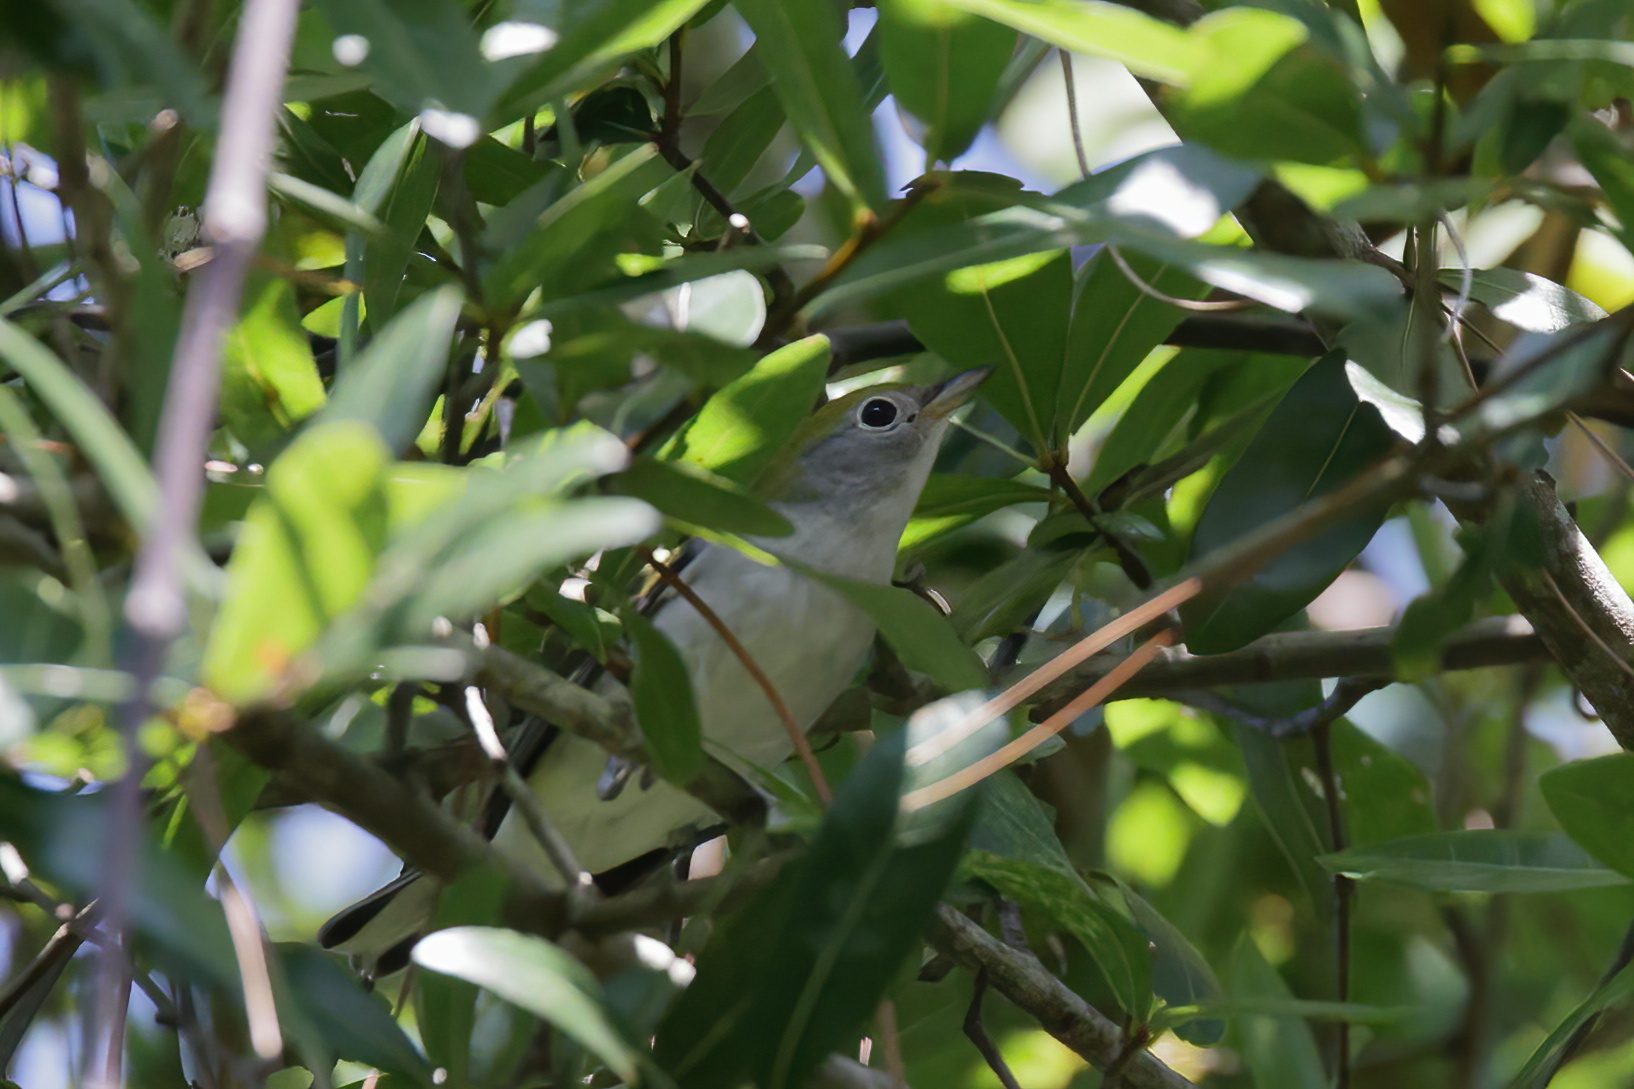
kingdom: Animalia
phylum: Chordata
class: Aves
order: Passeriformes
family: Parulidae
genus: Setophaga
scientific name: Setophaga pensylvanica
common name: Chestnut-sided warbler
